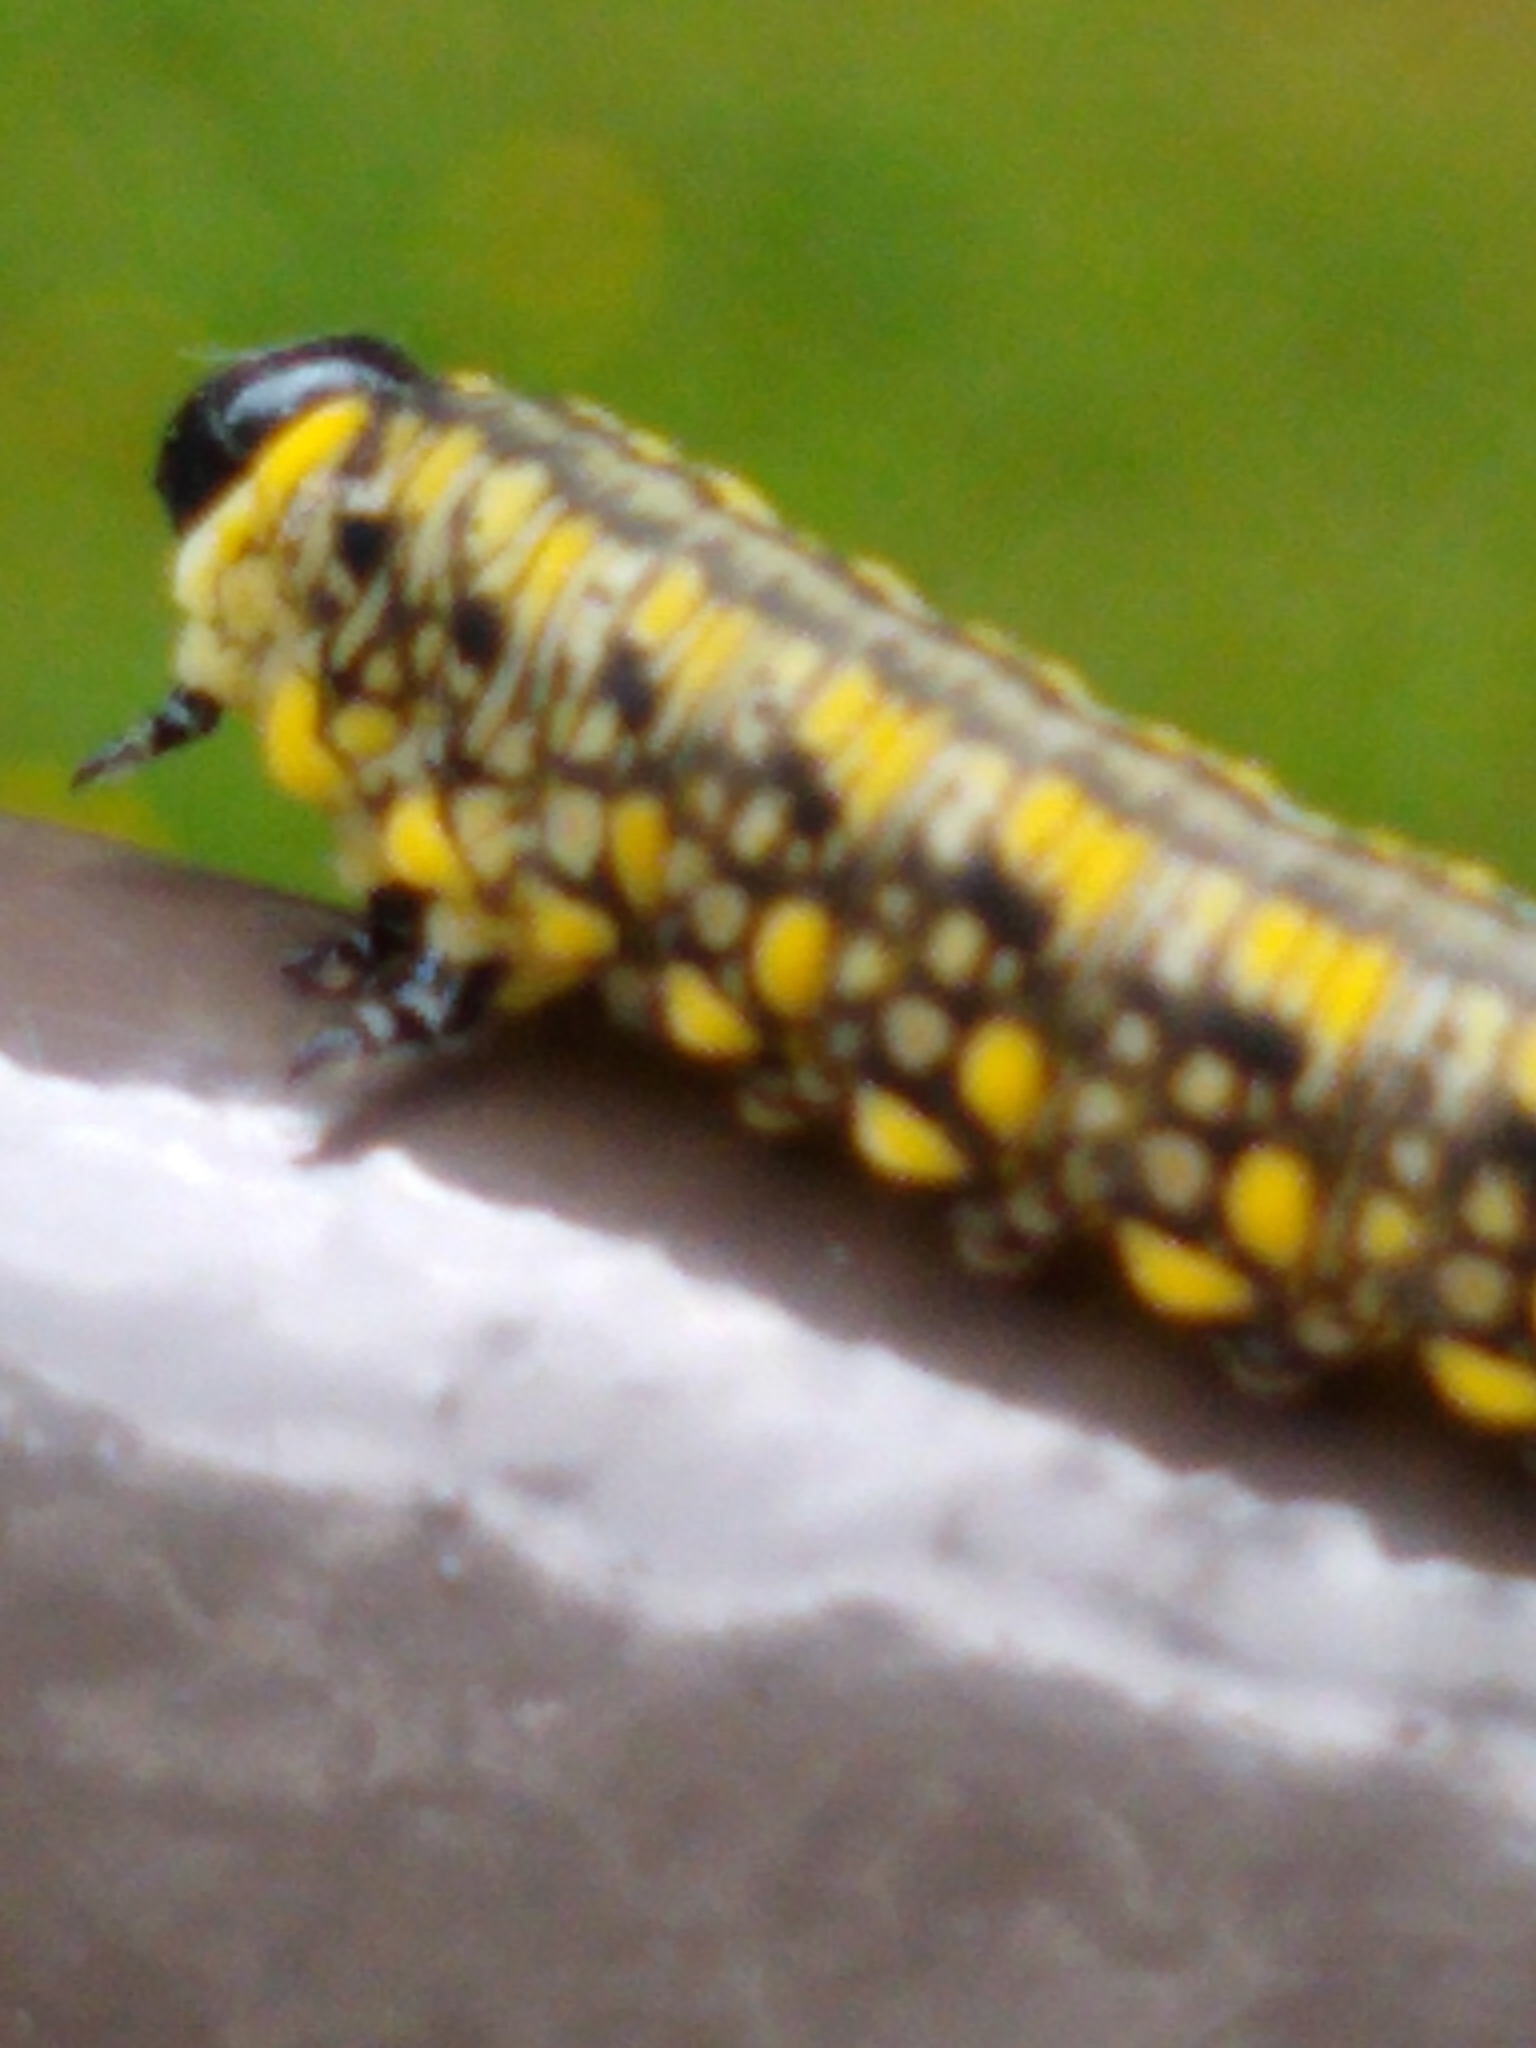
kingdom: Animalia
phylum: Arthropoda
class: Insecta
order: Hymenoptera
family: Diprionidae
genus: Diprion
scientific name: Diprion similis
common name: Pine sawfly
